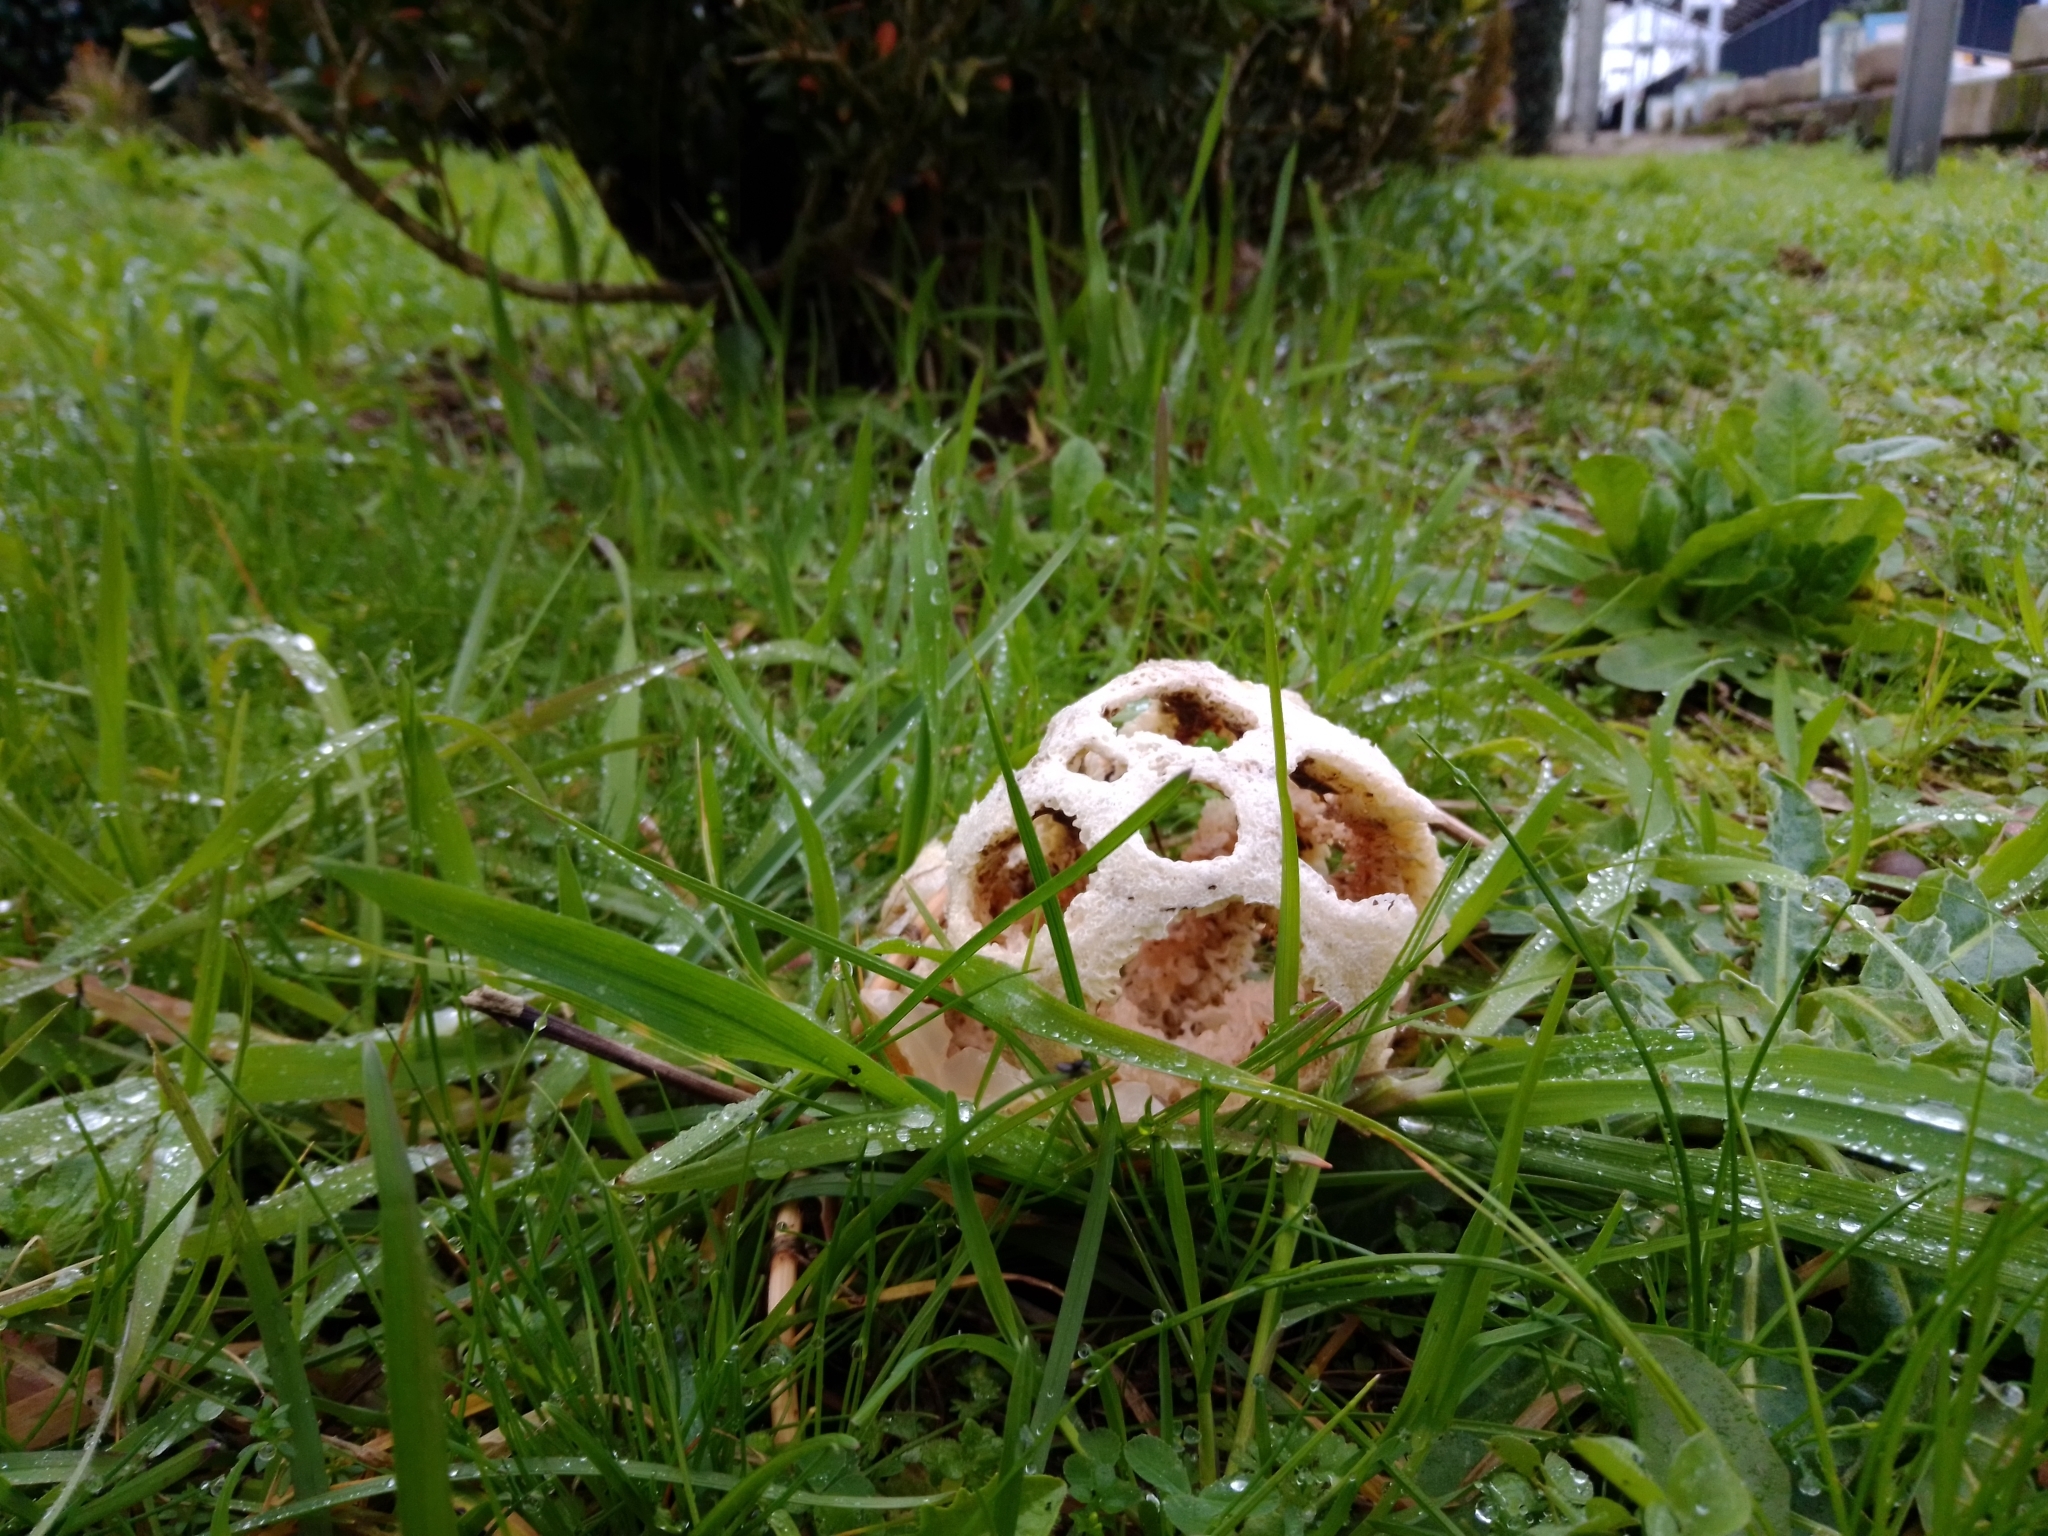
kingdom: Fungi
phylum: Basidiomycota
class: Agaricomycetes
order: Phallales
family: Phallaceae
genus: Clathrus
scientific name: Clathrus ruber
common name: Red cage
